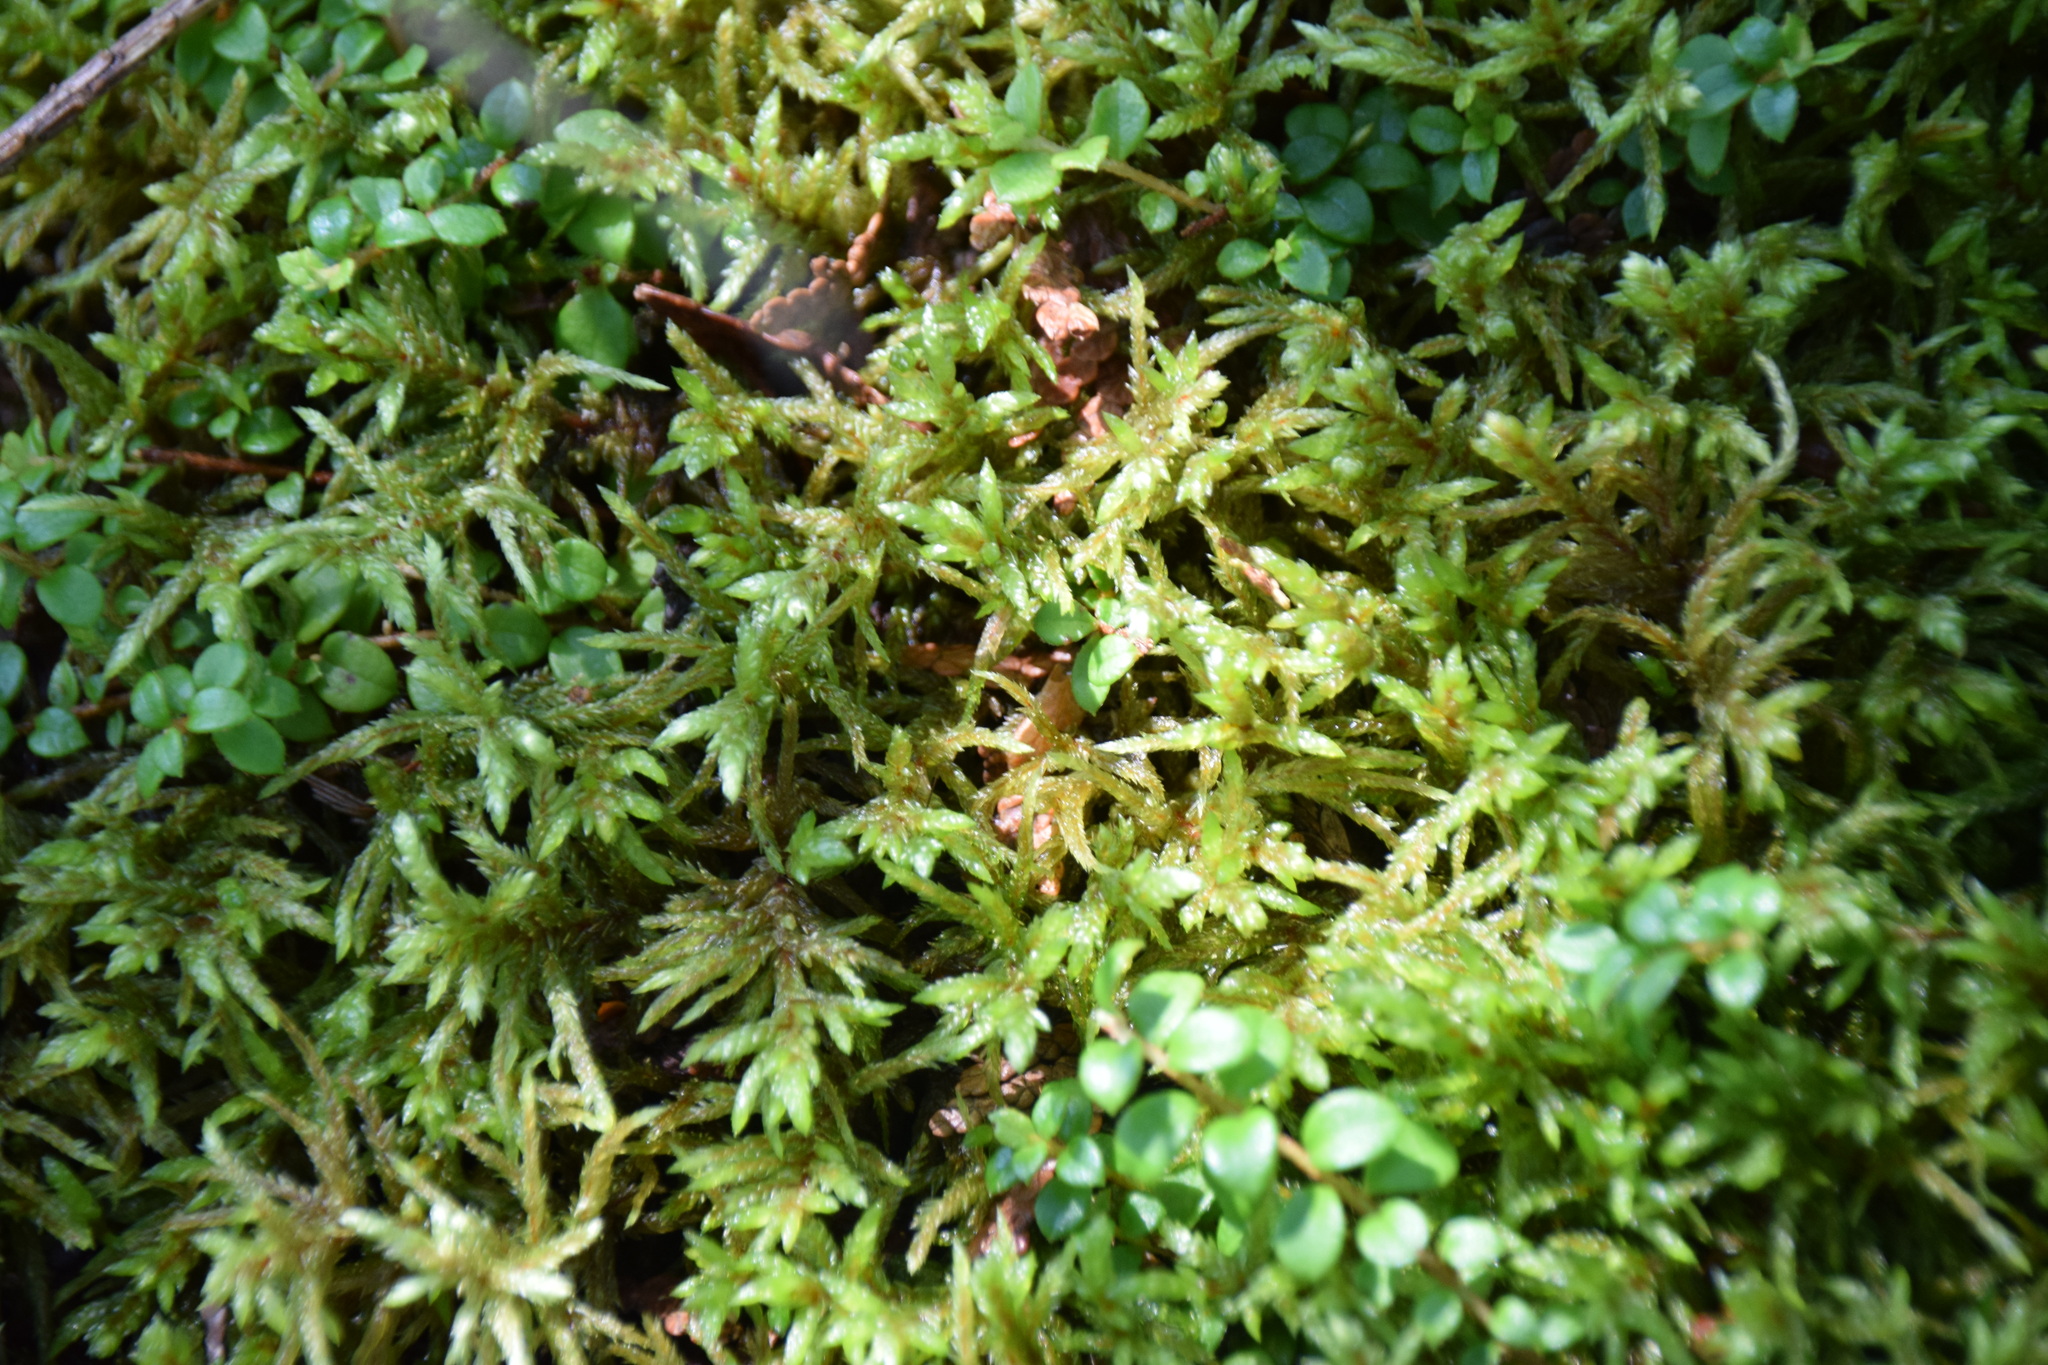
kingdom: Plantae
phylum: Bryophyta
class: Bryopsida
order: Hypnales
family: Hylocomiaceae
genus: Pleurozium
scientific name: Pleurozium schreberi
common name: Red-stemmed feather moss
